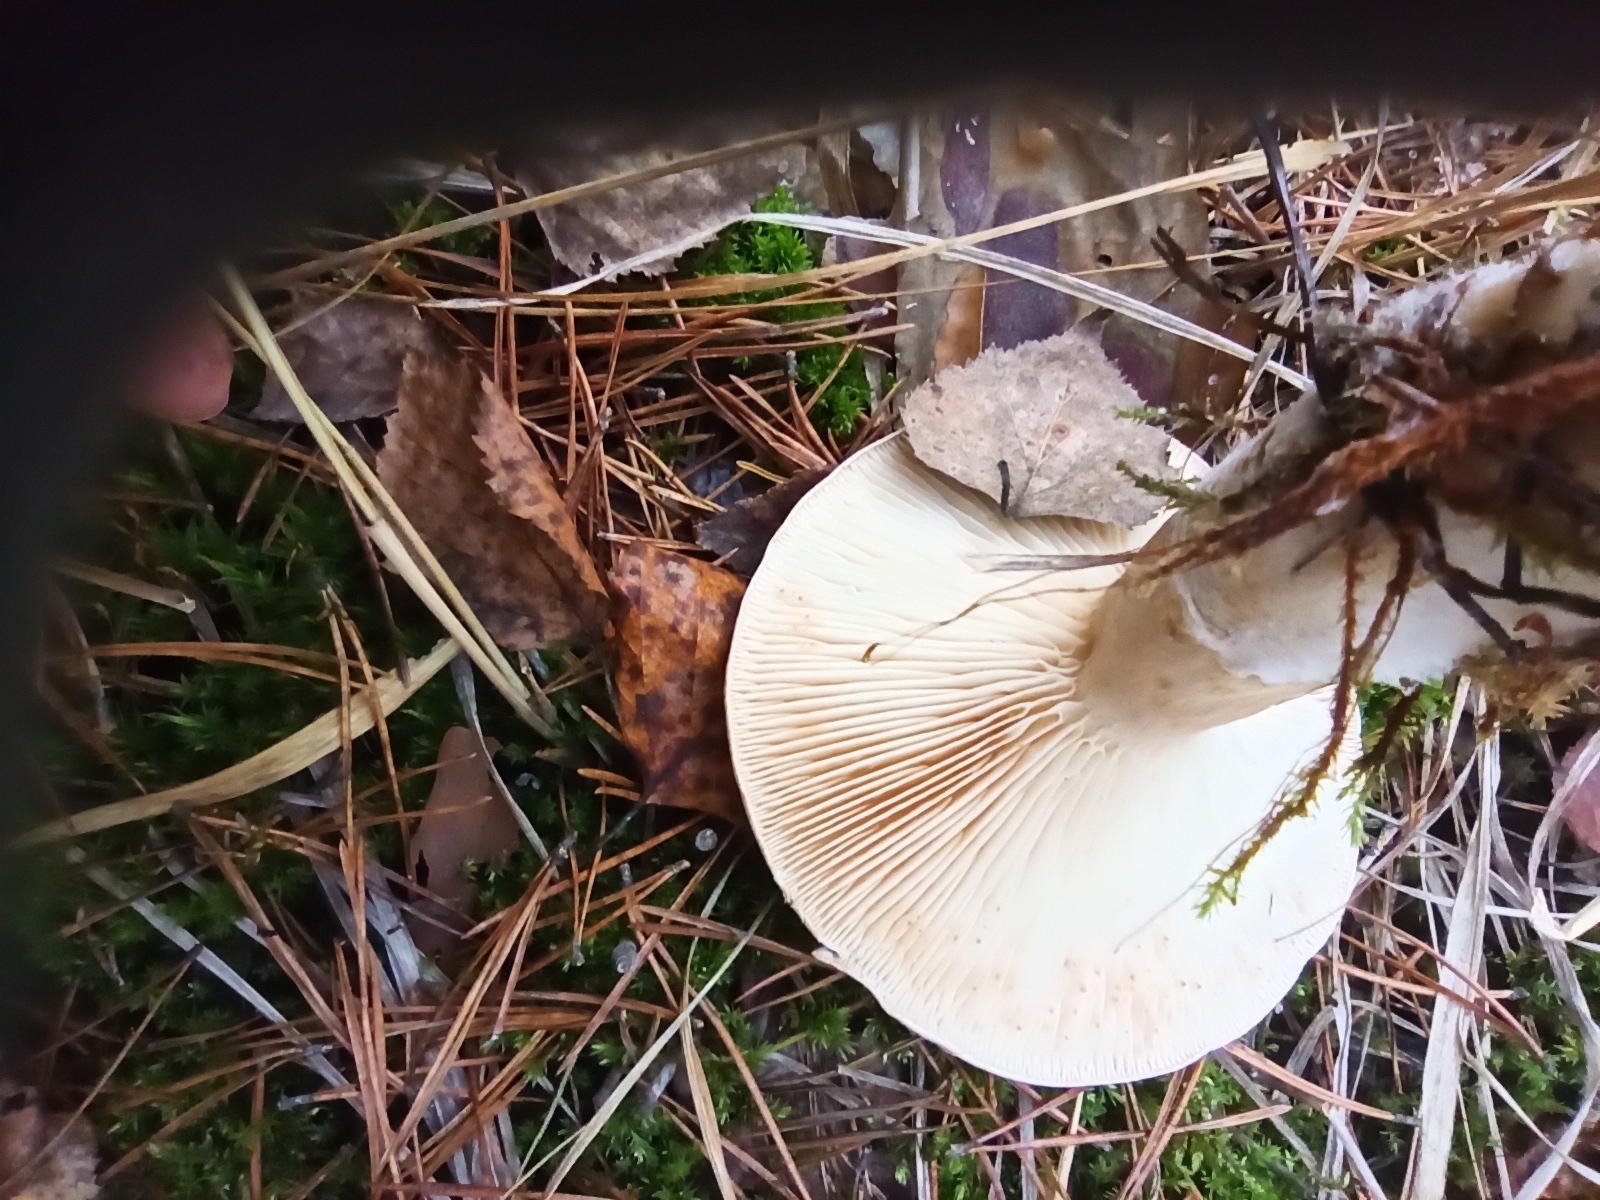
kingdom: Fungi
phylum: Basidiomycota
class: Agaricomycetes
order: Russulales
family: Russulaceae
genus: Lactarius
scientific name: Lactarius trivialis
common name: Tacked milkcap
